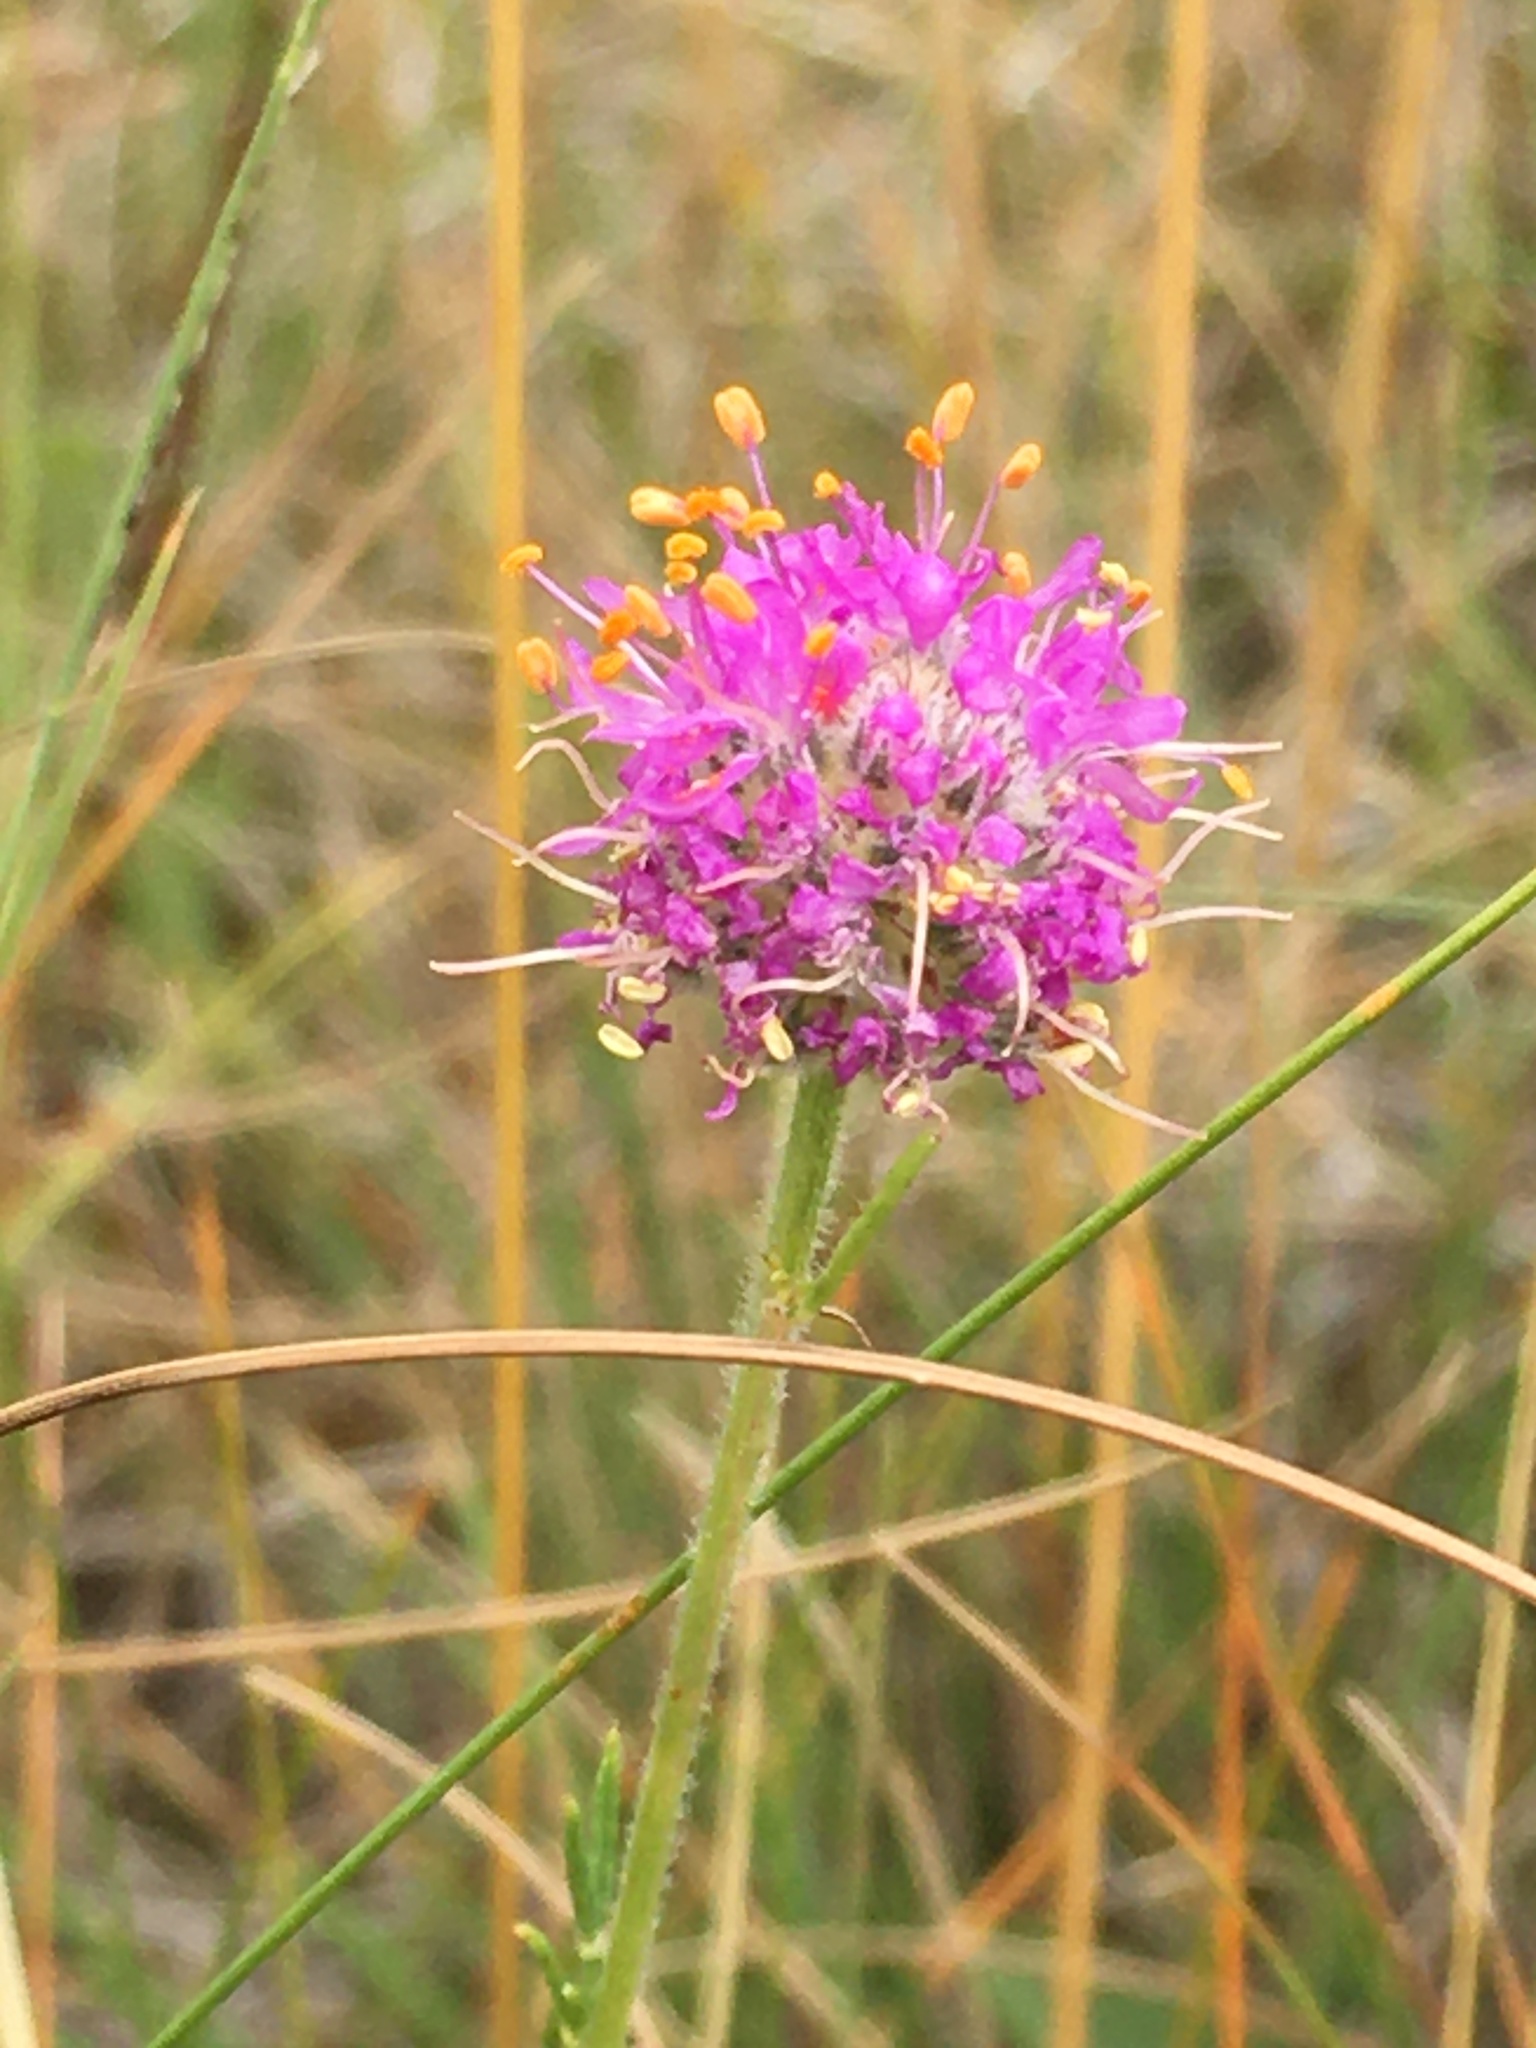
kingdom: Plantae
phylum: Tracheophyta
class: Magnoliopsida
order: Fabales
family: Fabaceae
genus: Dalea
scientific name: Dalea purpurea
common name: Purple prairie-clover
